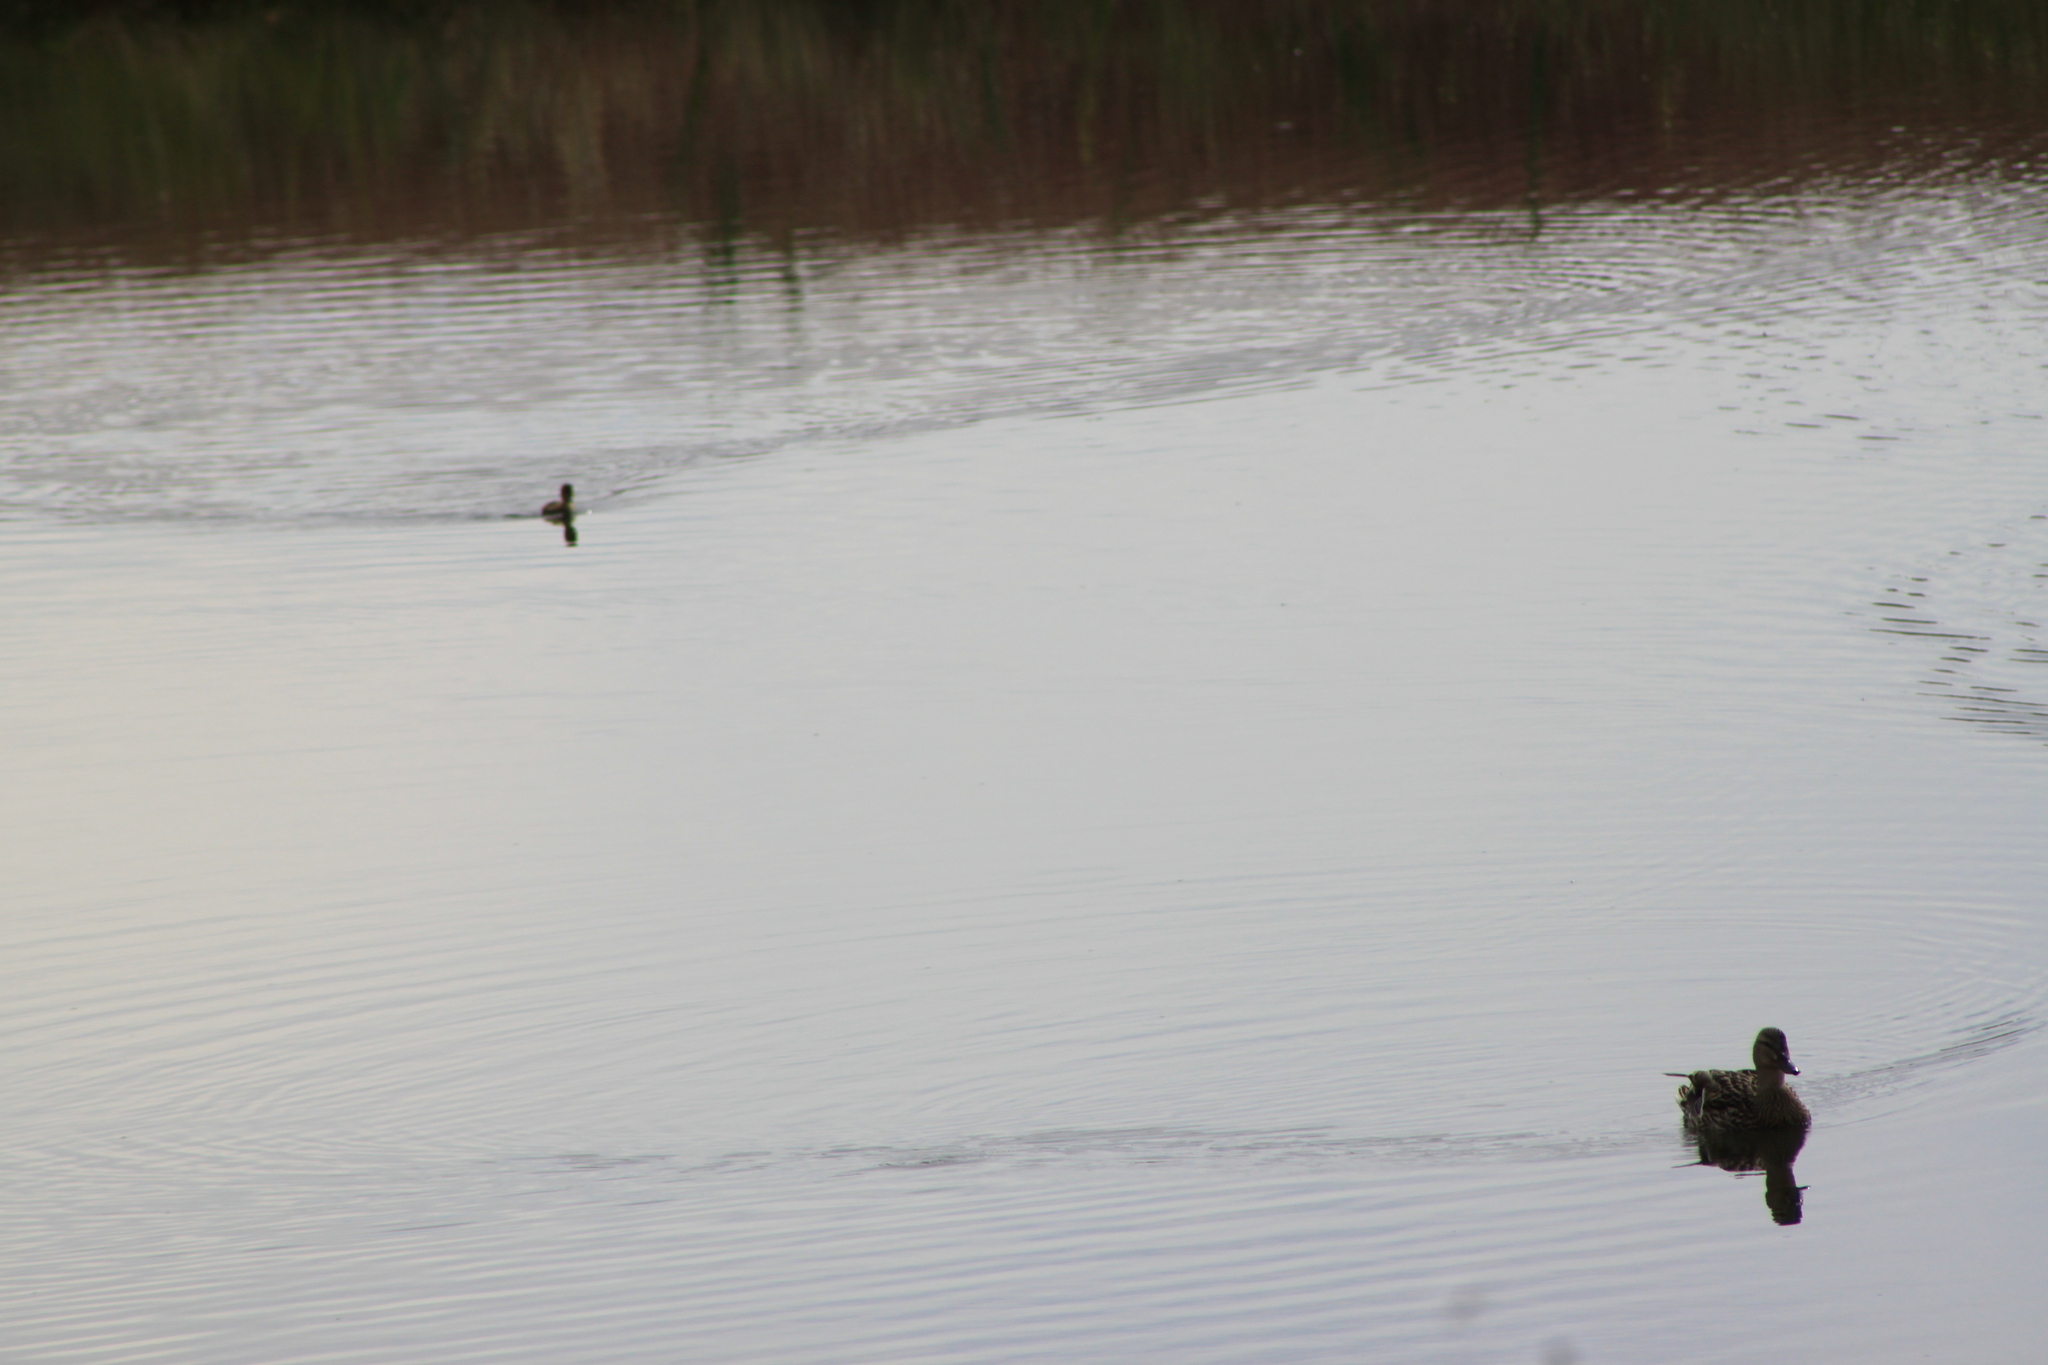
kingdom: Animalia
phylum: Chordata
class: Aves
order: Anseriformes
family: Anatidae
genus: Anas
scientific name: Anas platyrhynchos
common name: Mallard
